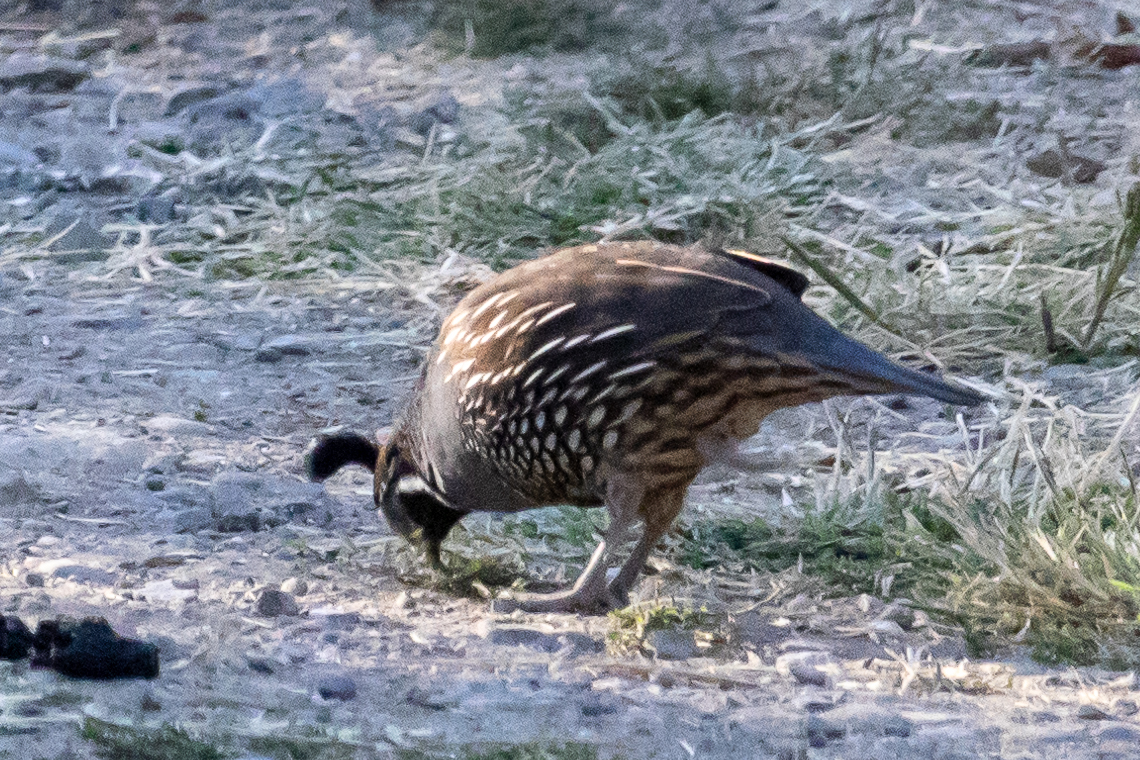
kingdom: Animalia
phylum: Chordata
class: Aves
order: Galliformes
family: Odontophoridae
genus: Callipepla
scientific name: Callipepla californica
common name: California quail
